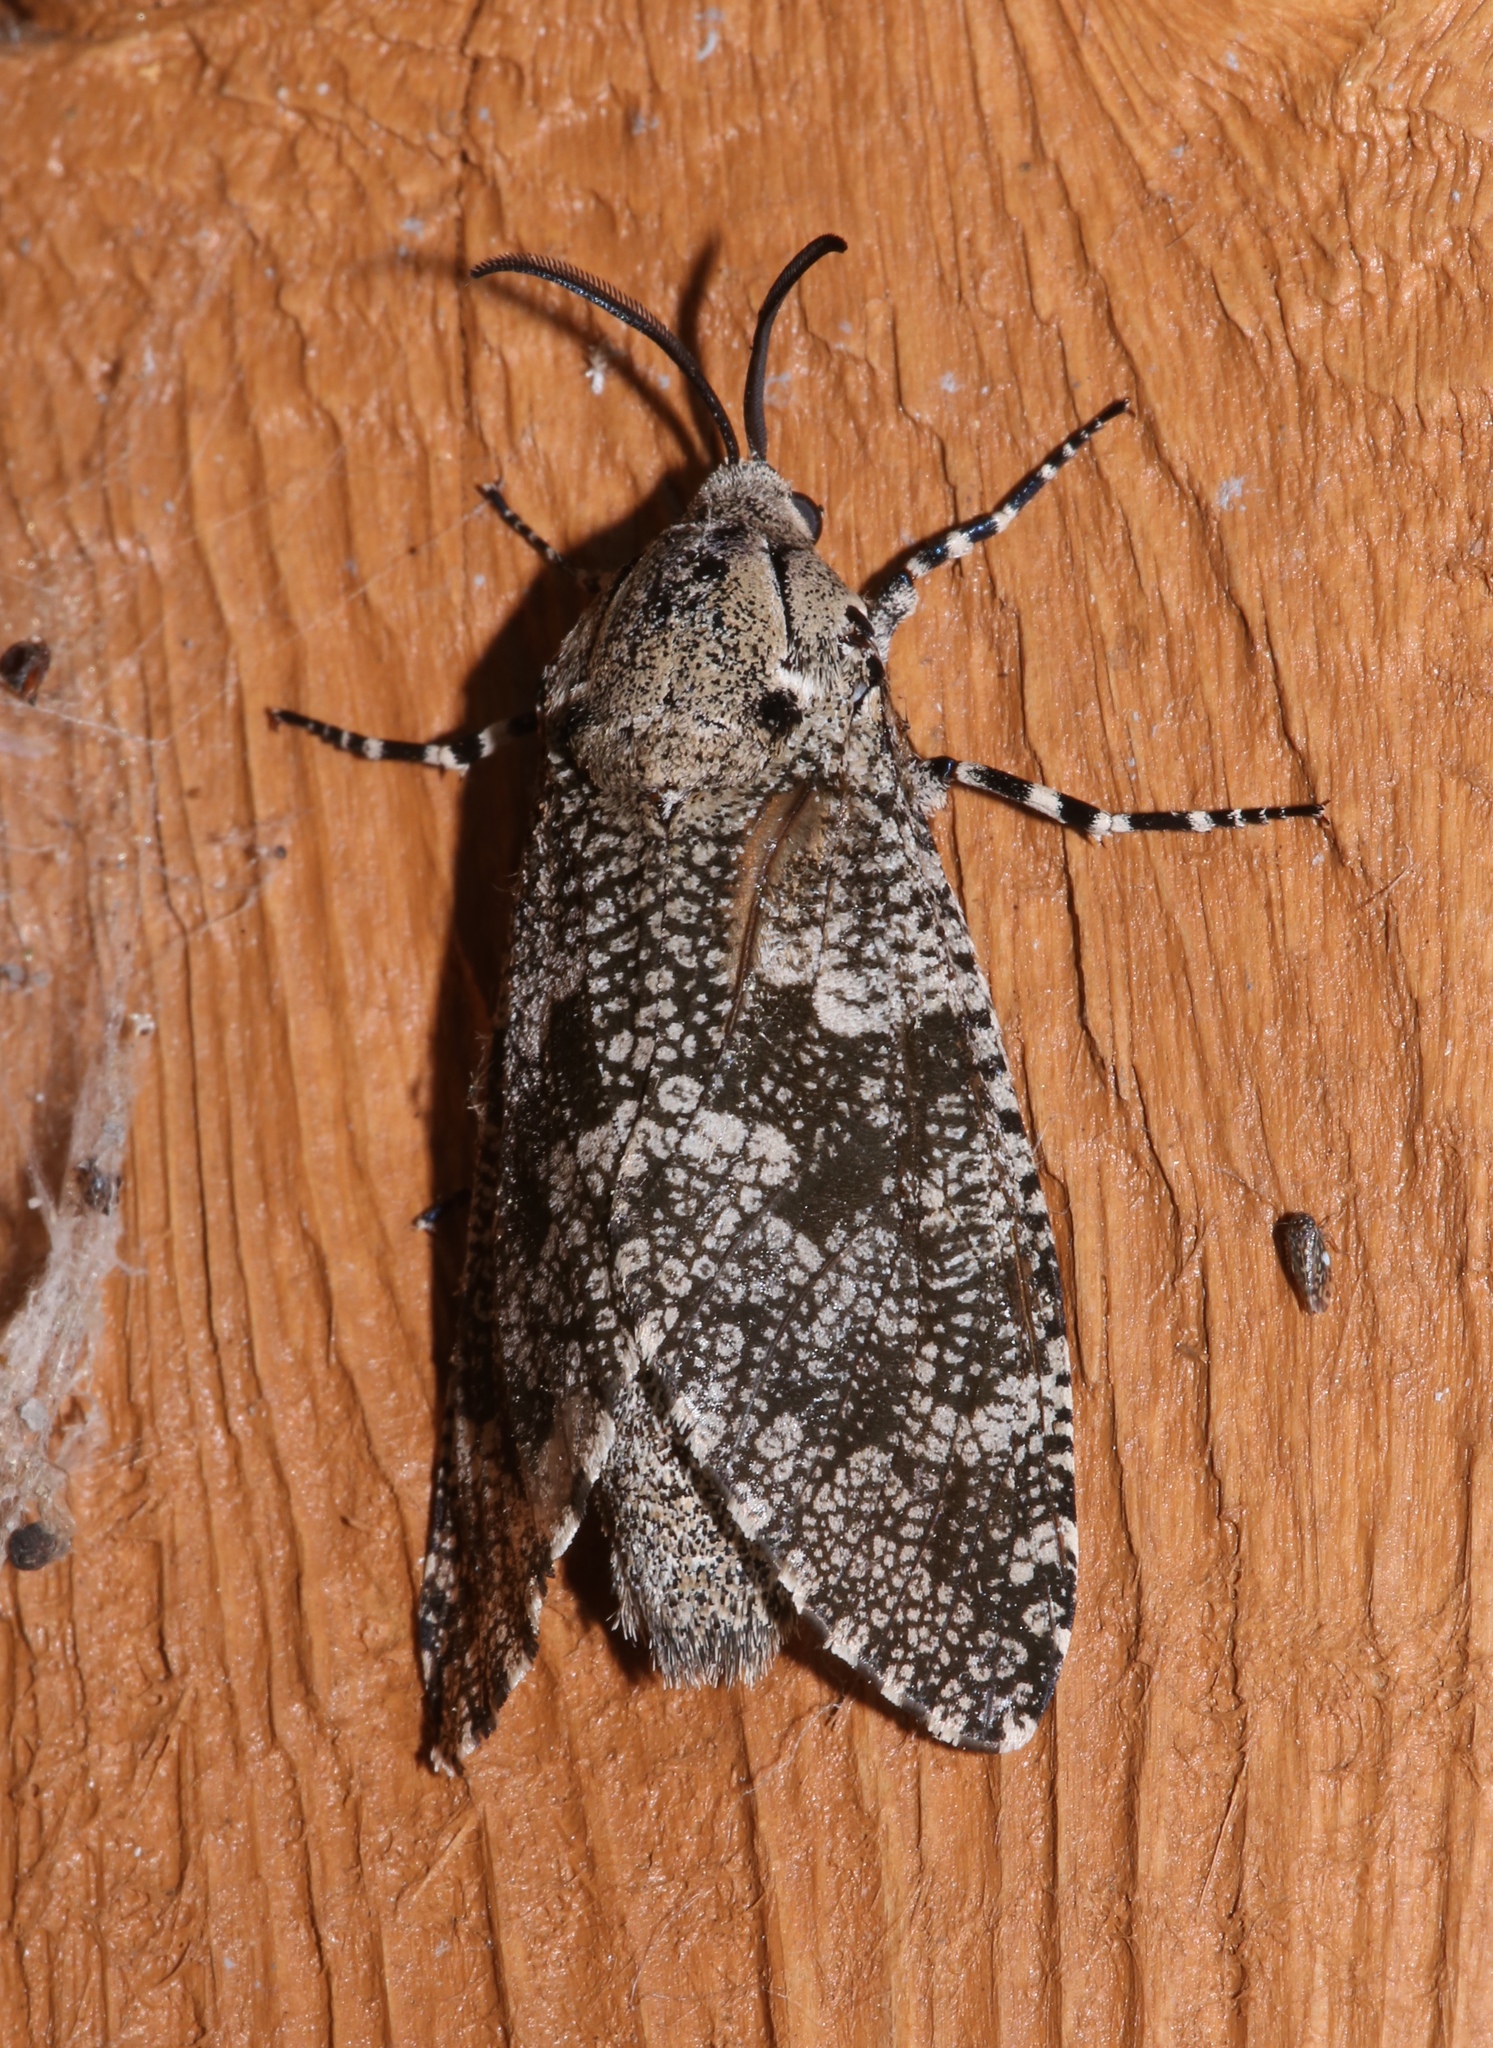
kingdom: Animalia
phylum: Arthropoda
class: Insecta
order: Lepidoptera
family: Cossidae
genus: Prionoxystus
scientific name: Prionoxystus robiniae
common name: Carpenterworm
